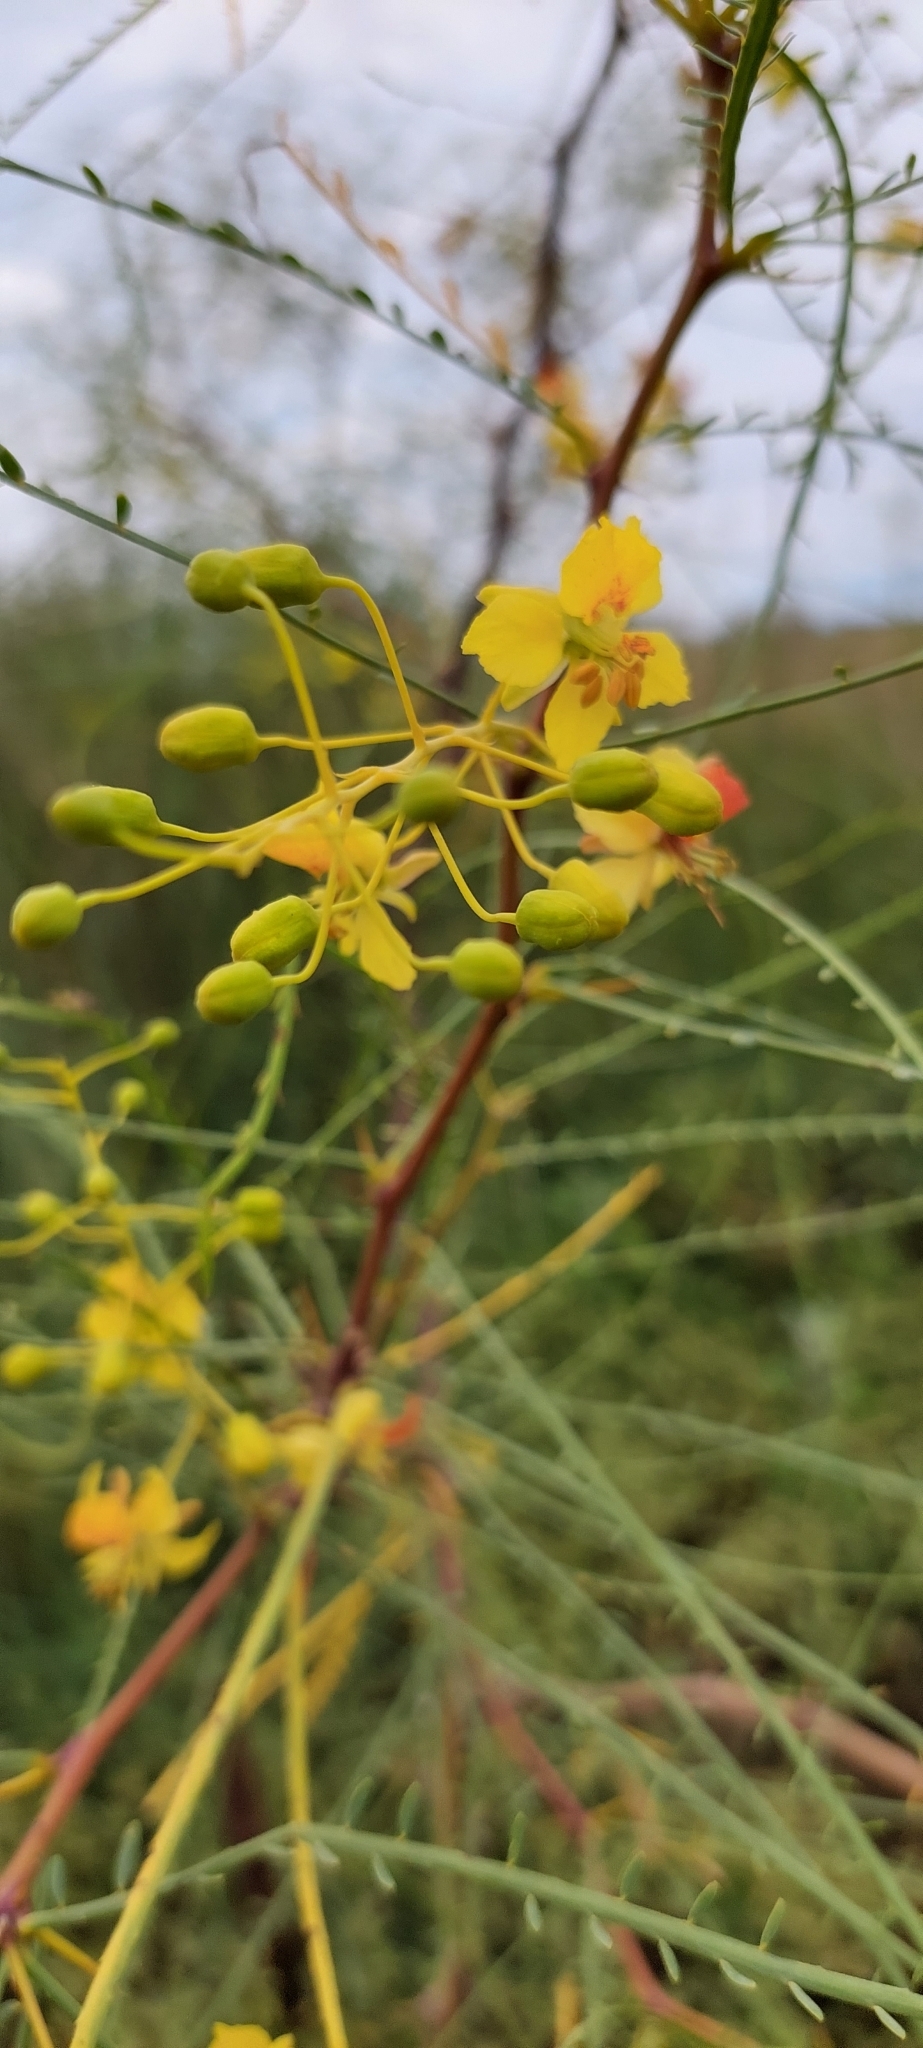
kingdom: Plantae
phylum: Tracheophyta
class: Magnoliopsida
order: Fabales
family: Fabaceae
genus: Parkinsonia
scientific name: Parkinsonia aculeata
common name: Jerusalem thorn
